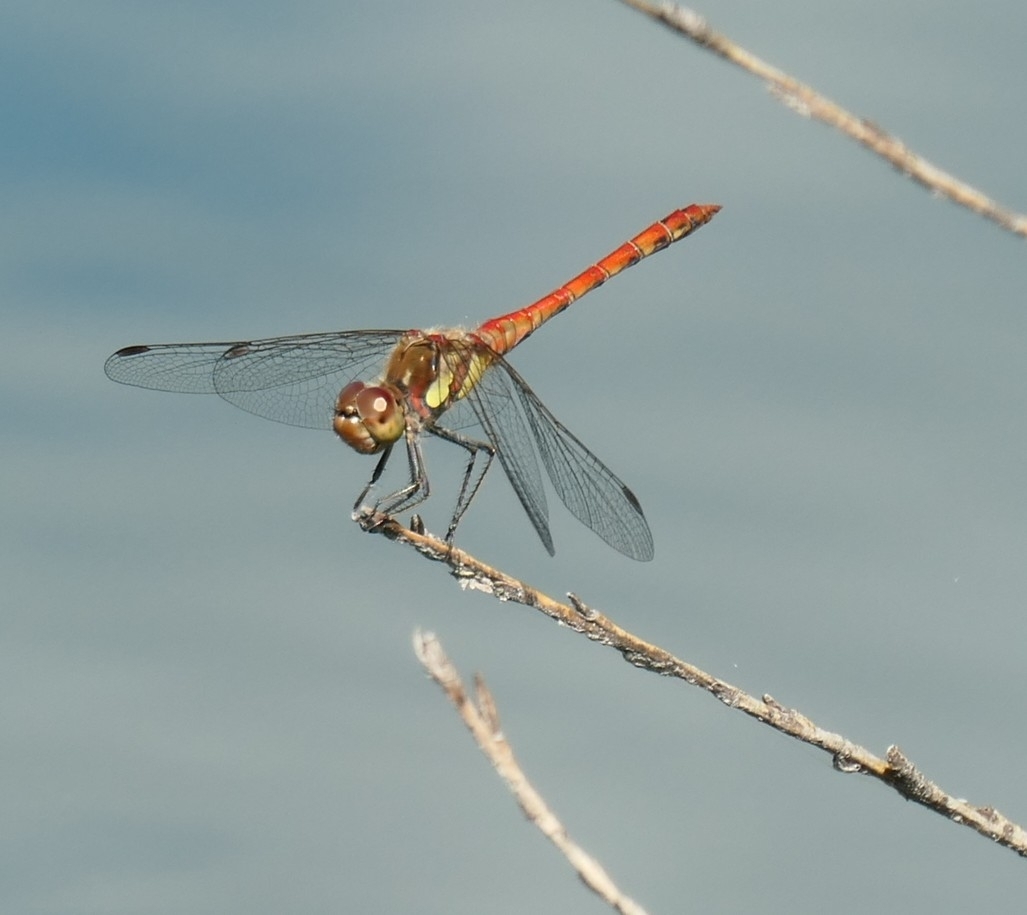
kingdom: Animalia
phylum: Arthropoda
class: Insecta
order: Odonata
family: Libellulidae
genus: Sympetrum
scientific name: Sympetrum striolatum
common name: Common darter
